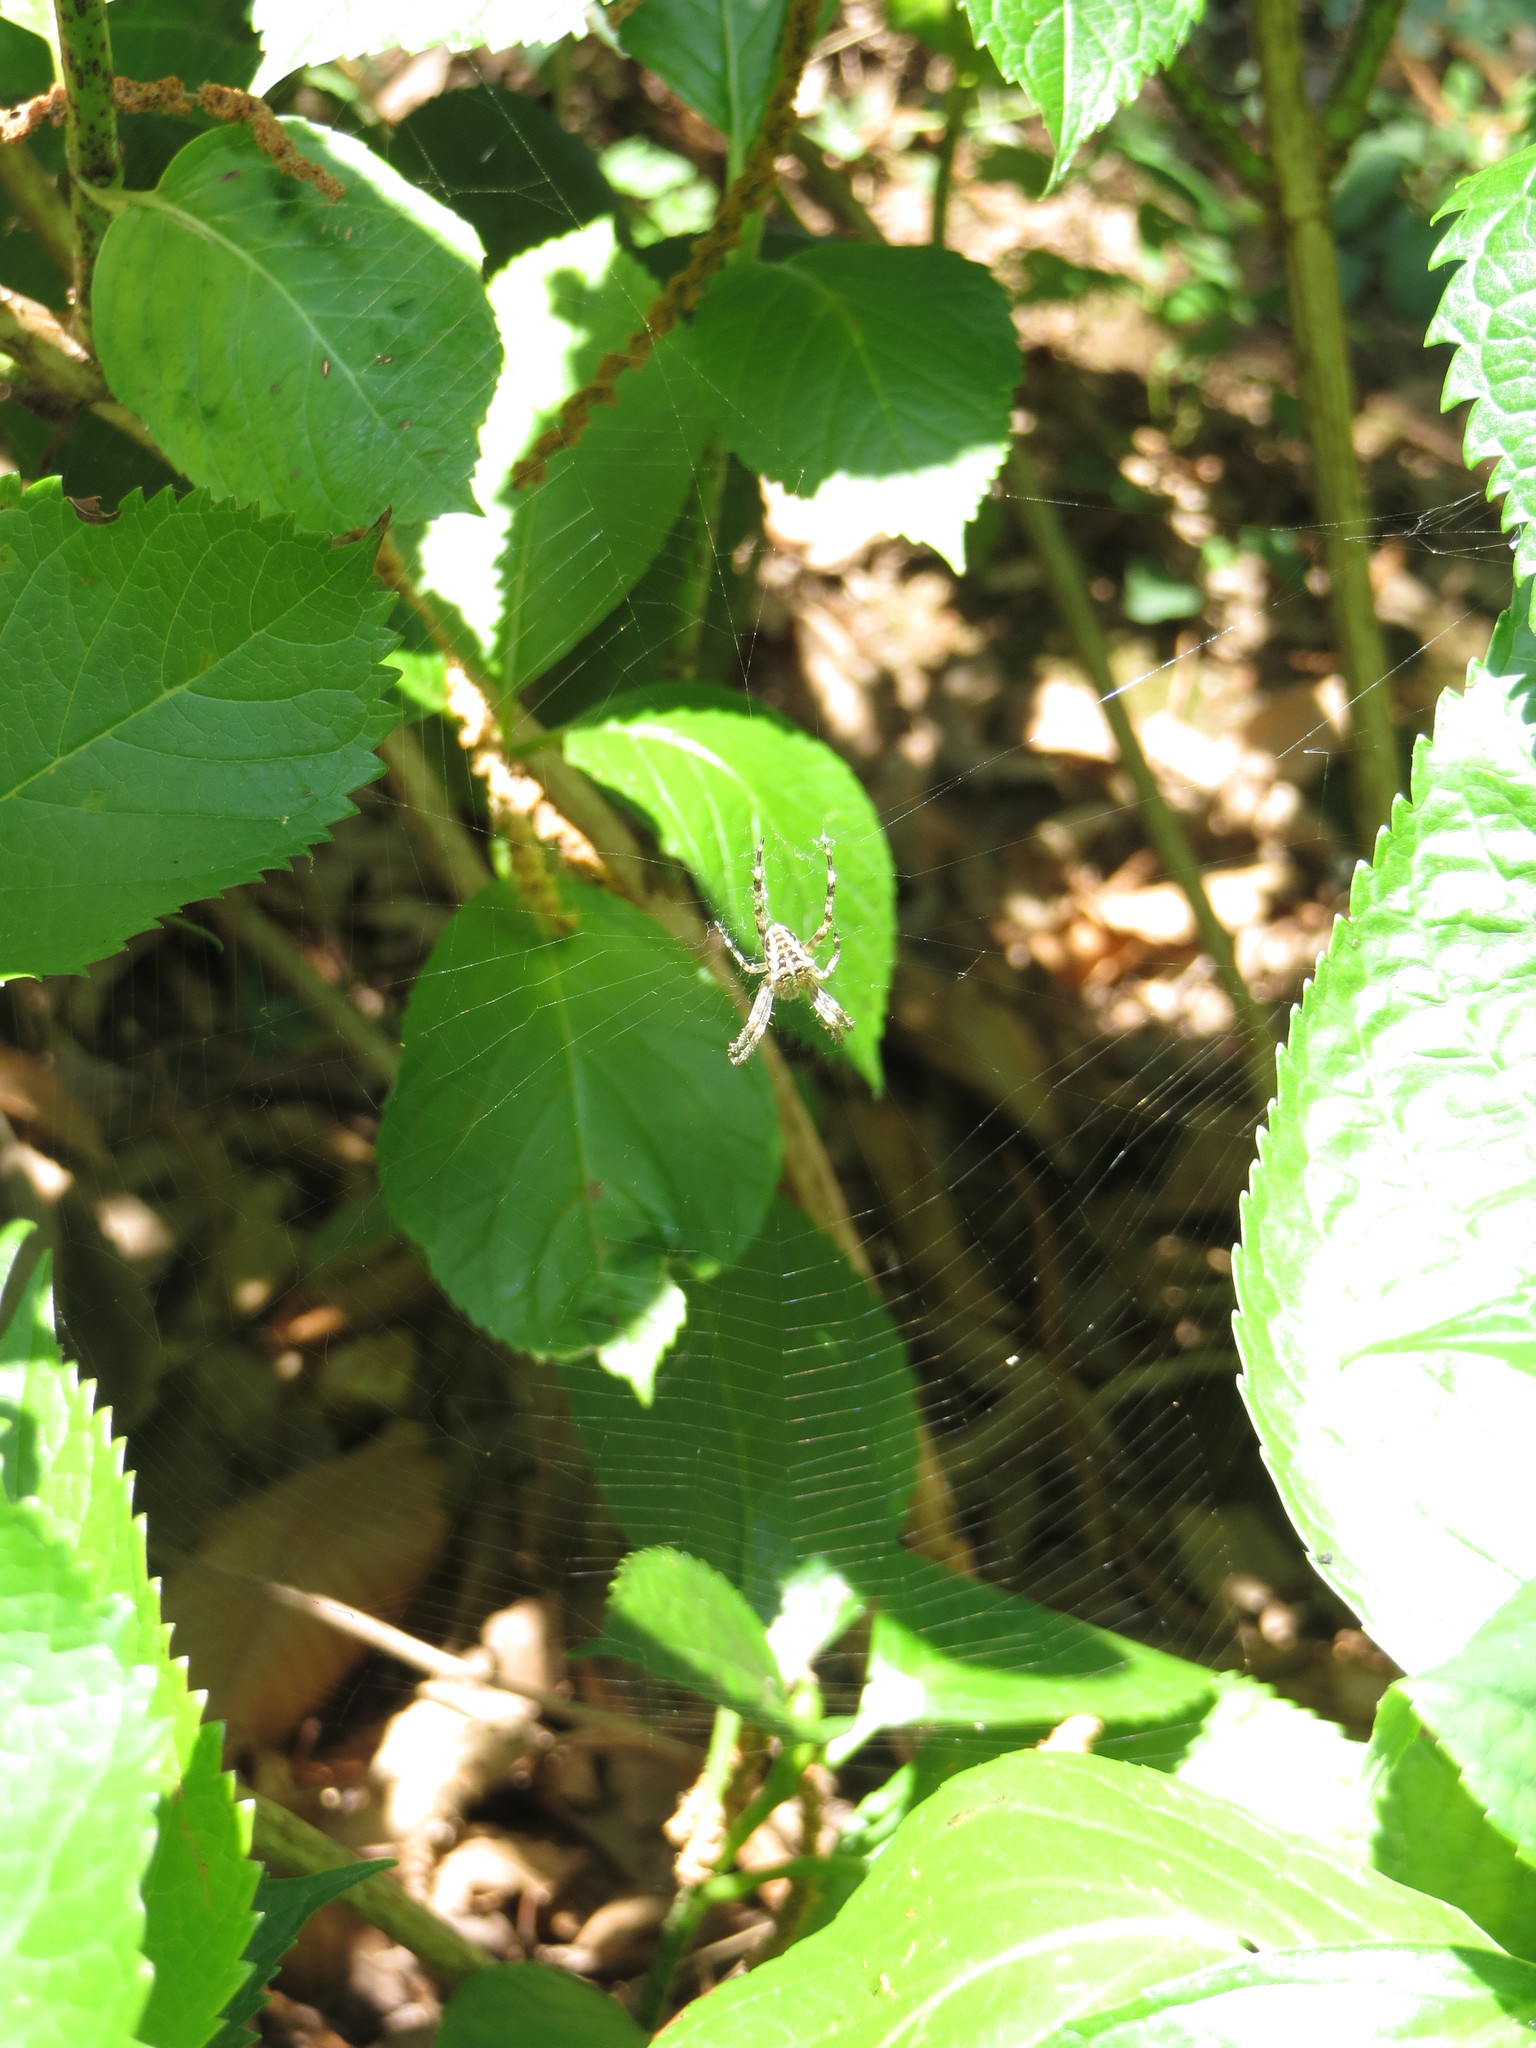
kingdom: Animalia
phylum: Arthropoda
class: Arachnida
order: Araneae
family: Araneidae
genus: Araneus
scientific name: Araneus diadematus
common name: Cross orbweaver
